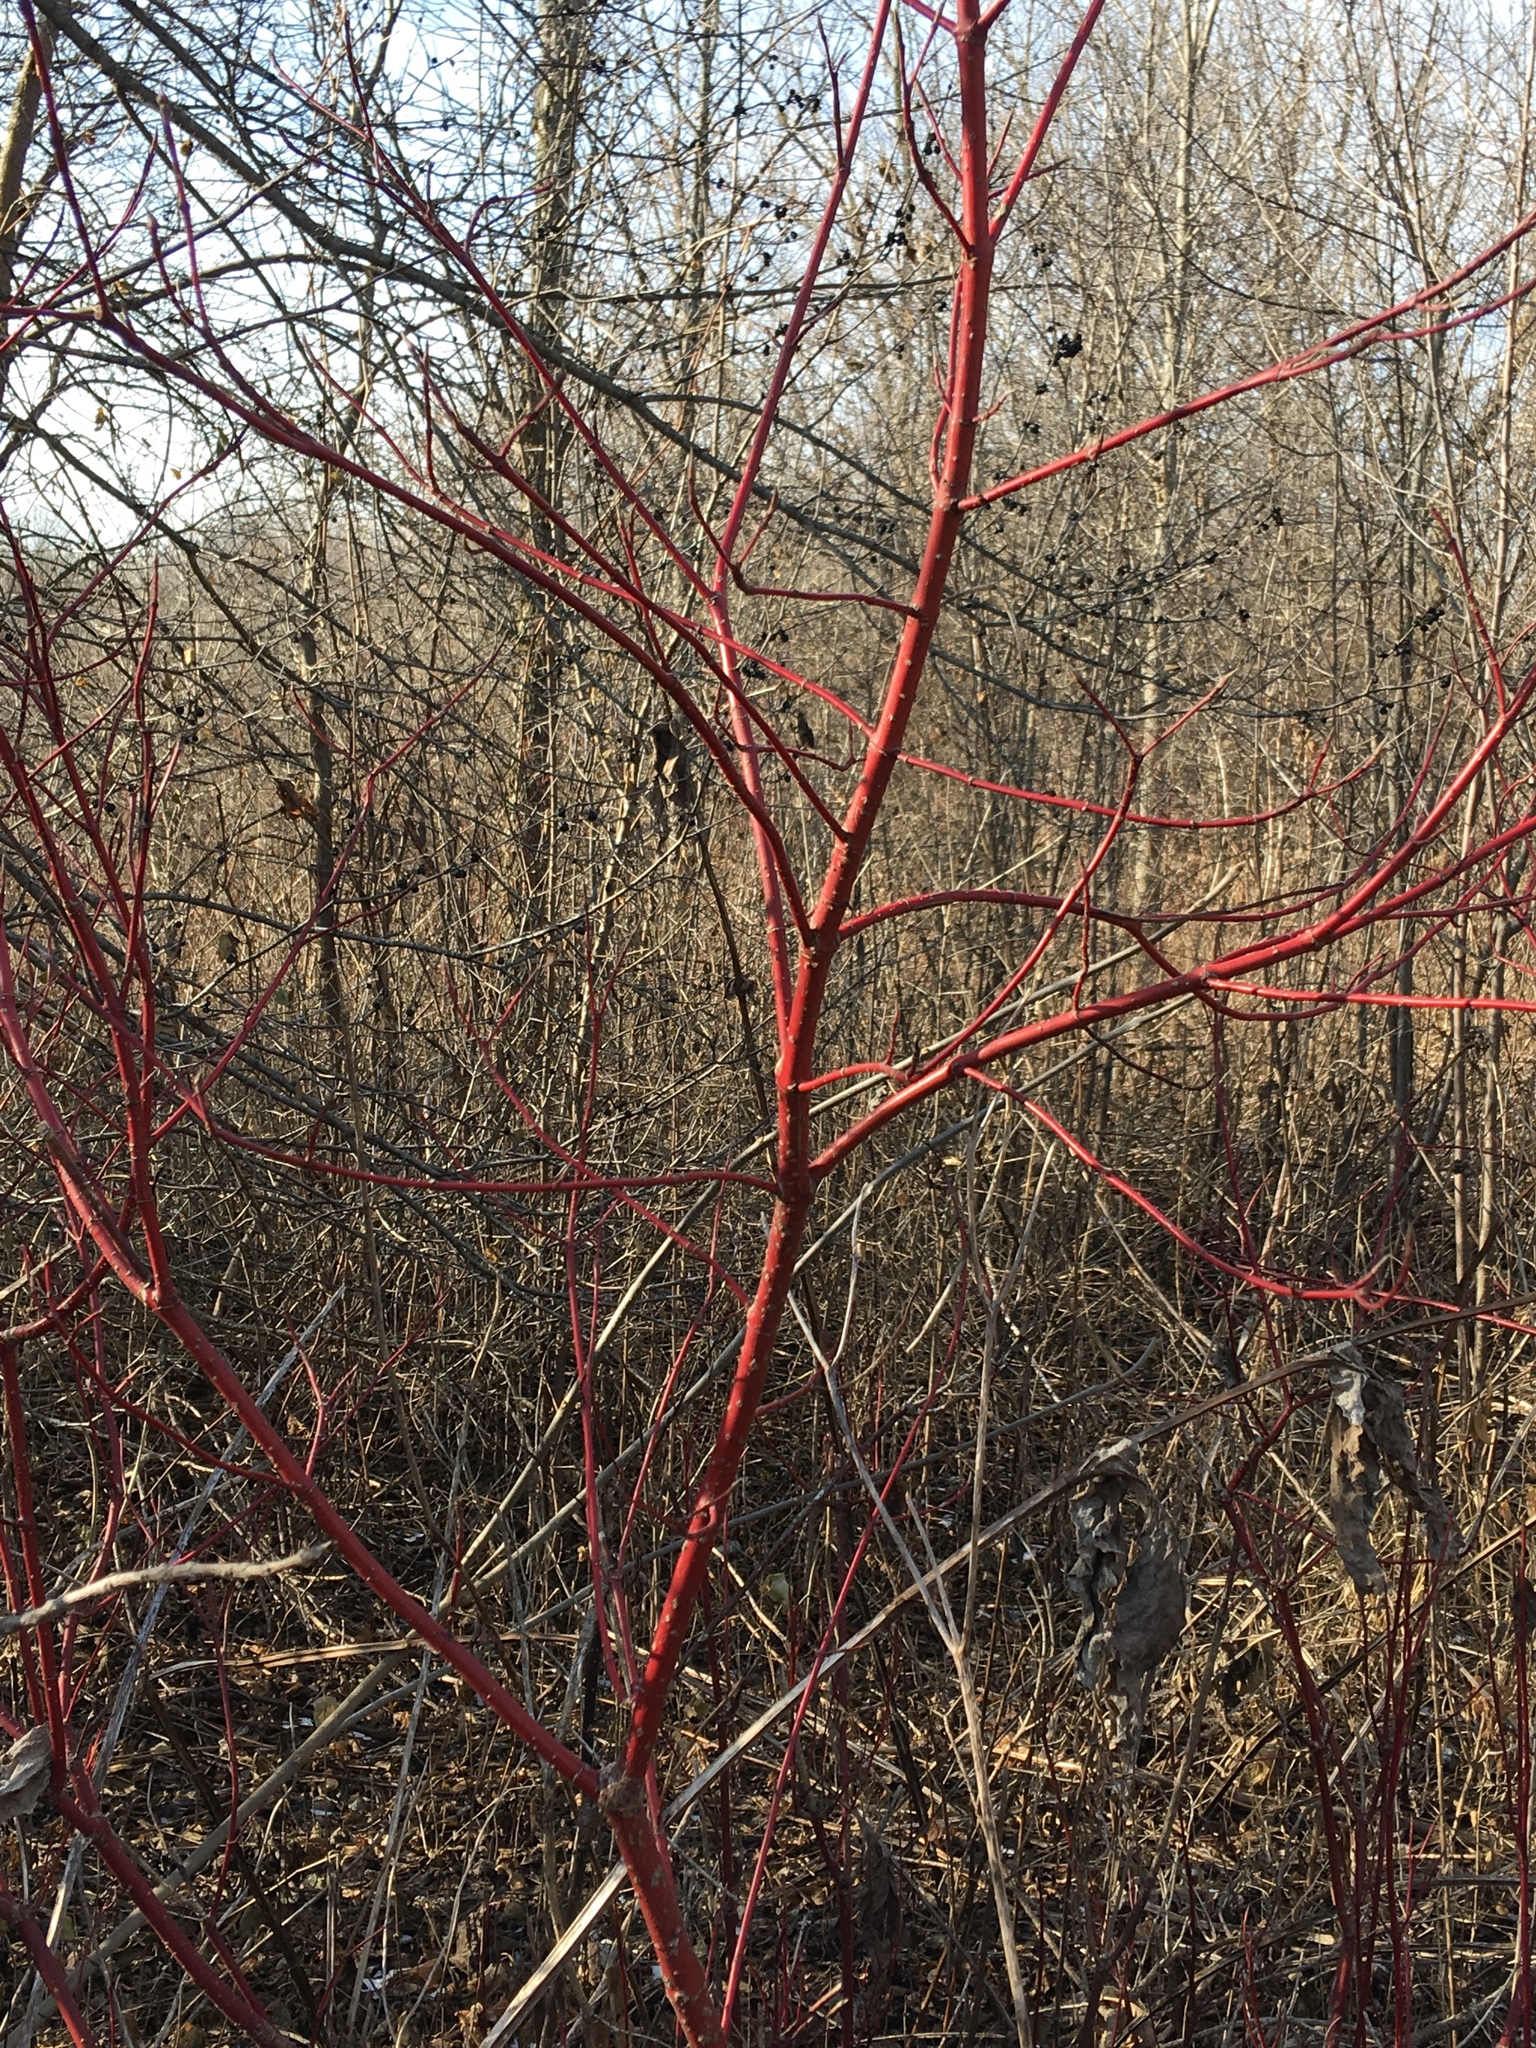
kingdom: Plantae
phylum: Tracheophyta
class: Magnoliopsida
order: Cornales
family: Cornaceae
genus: Cornus
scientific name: Cornus sericea
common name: Red-osier dogwood
